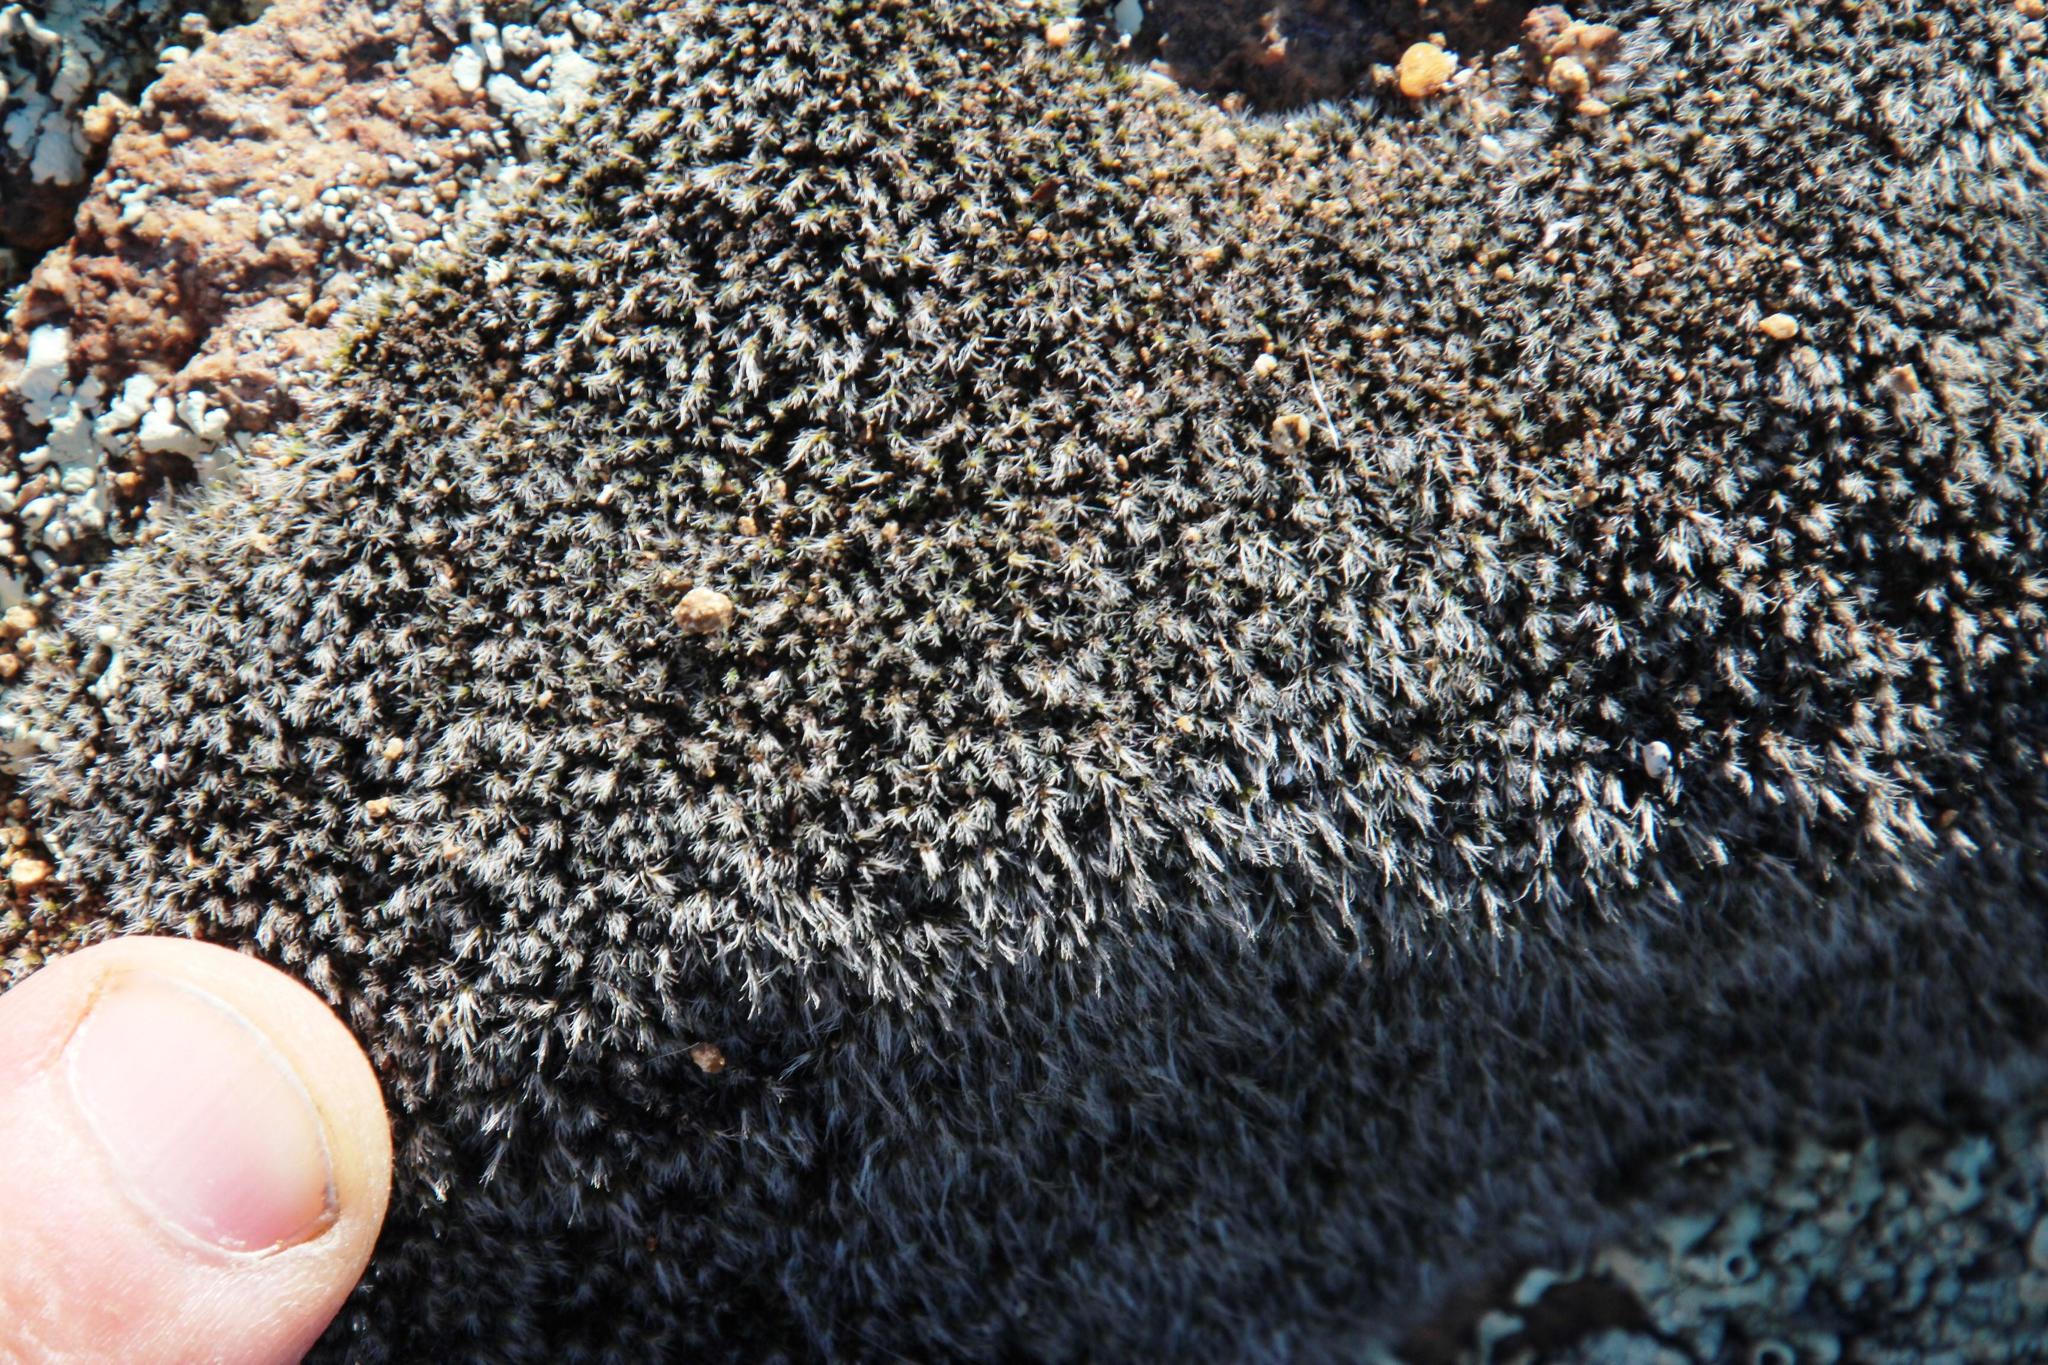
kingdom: Plantae
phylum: Bryophyta
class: Bryopsida
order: Grimmiales
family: Grimmiaceae
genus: Grimmia
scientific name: Grimmia laevigata
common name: Hoary grimmia
